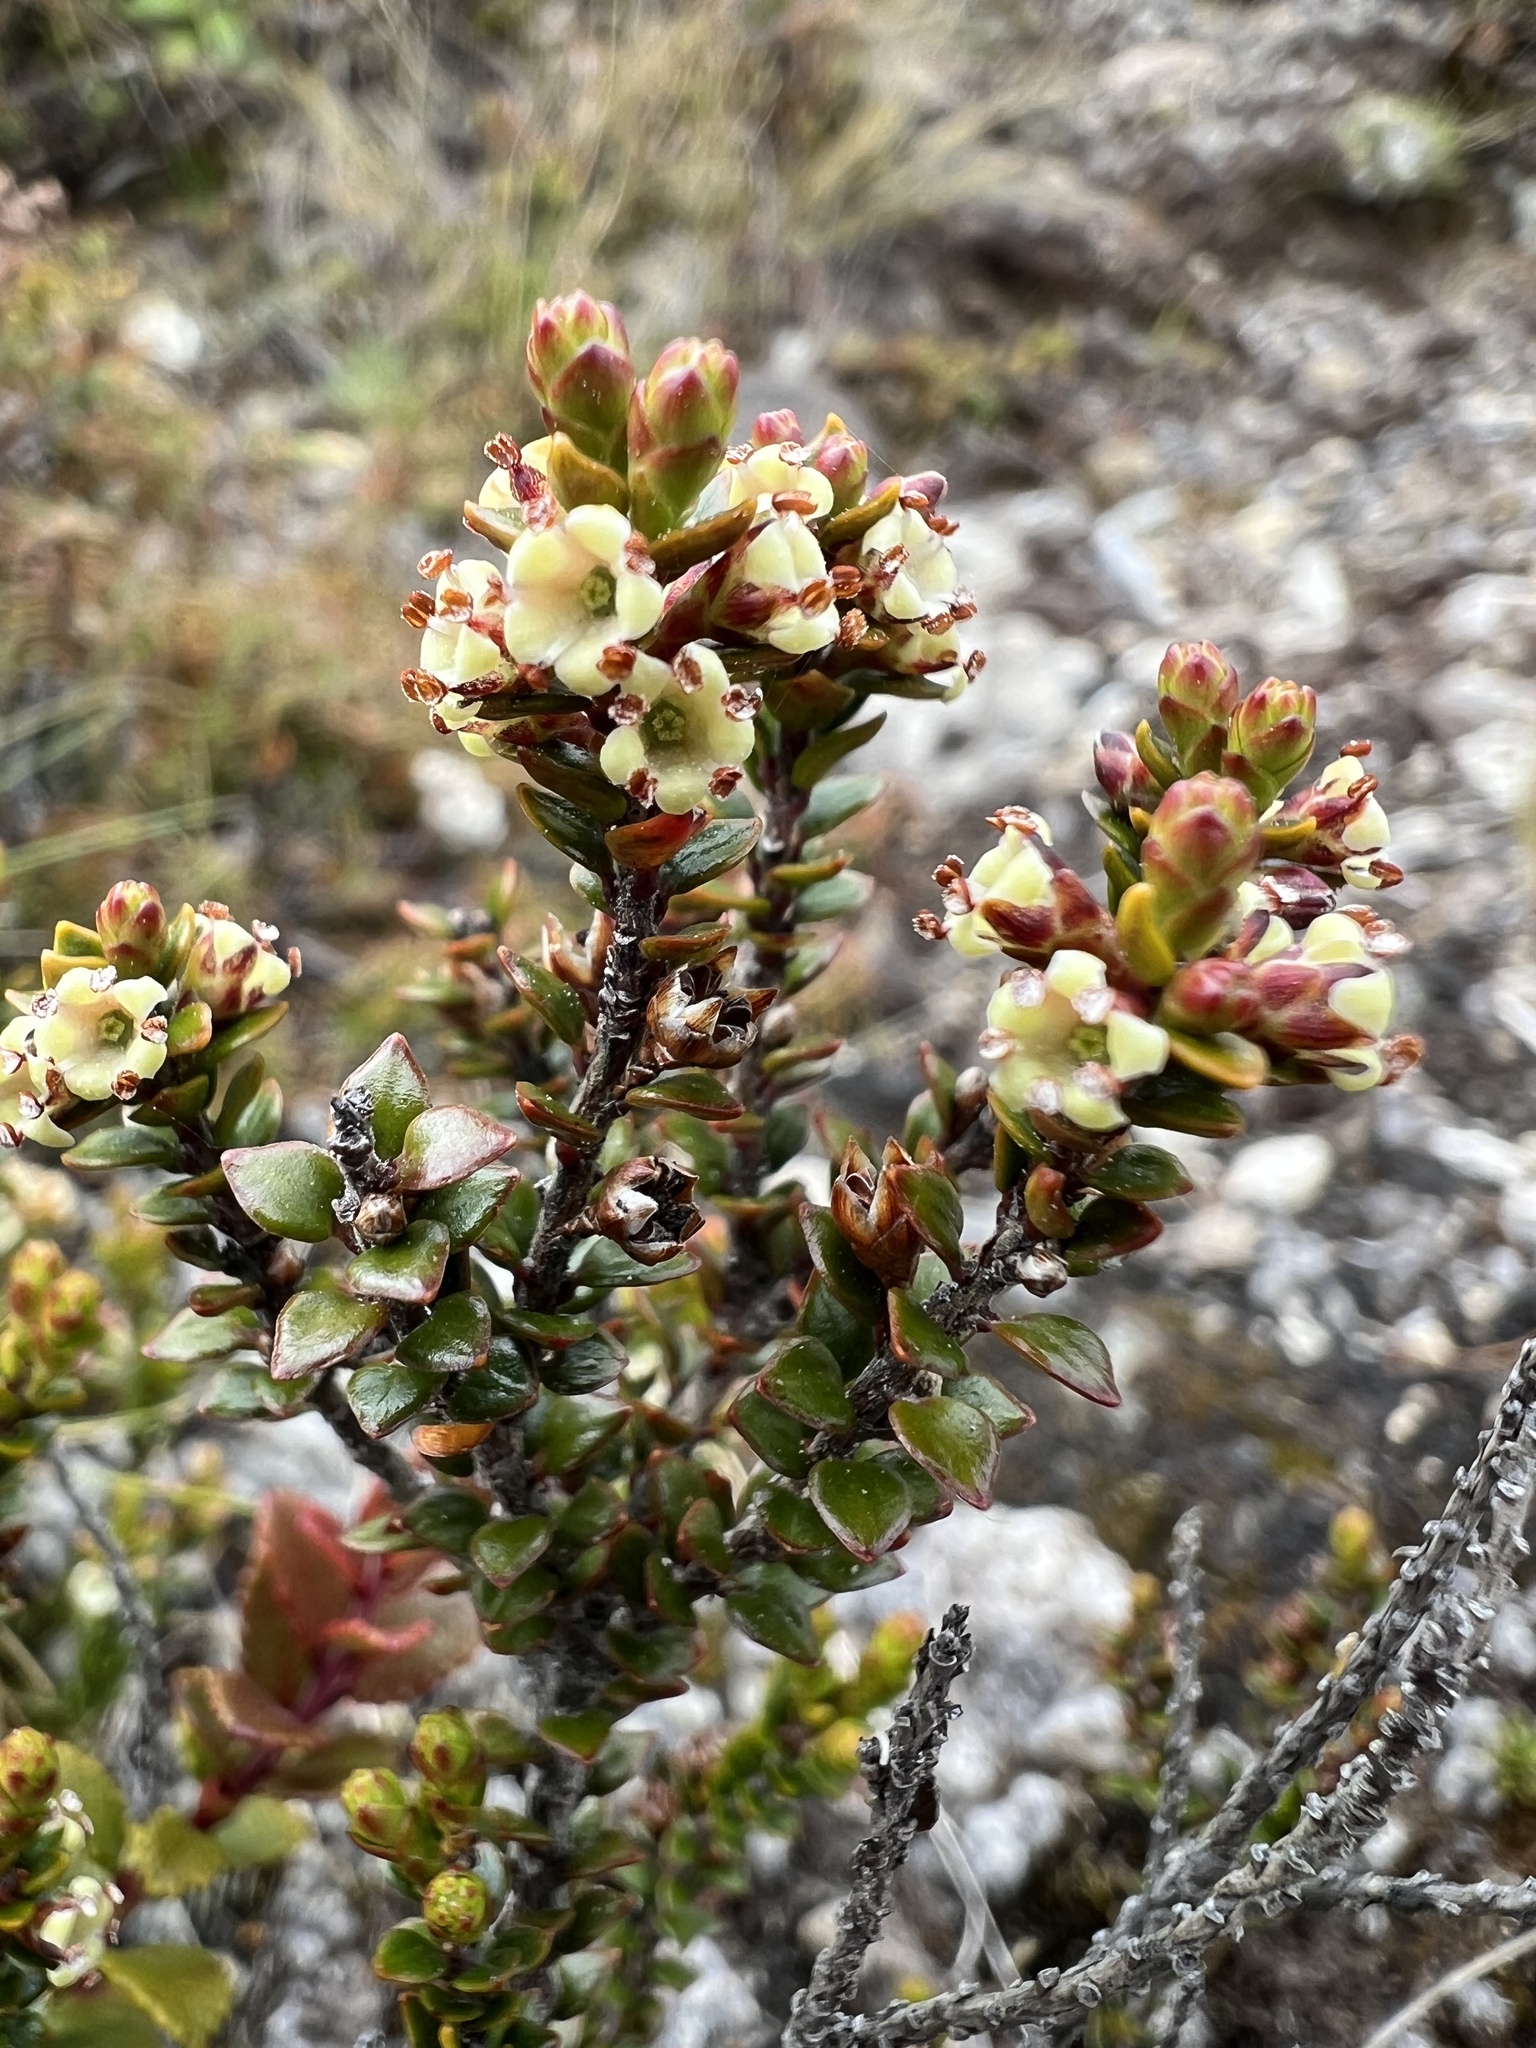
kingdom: Plantae
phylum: Tracheophyta
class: Magnoliopsida
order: Ericales
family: Ericaceae
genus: Epacris
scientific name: Epacris alpina
